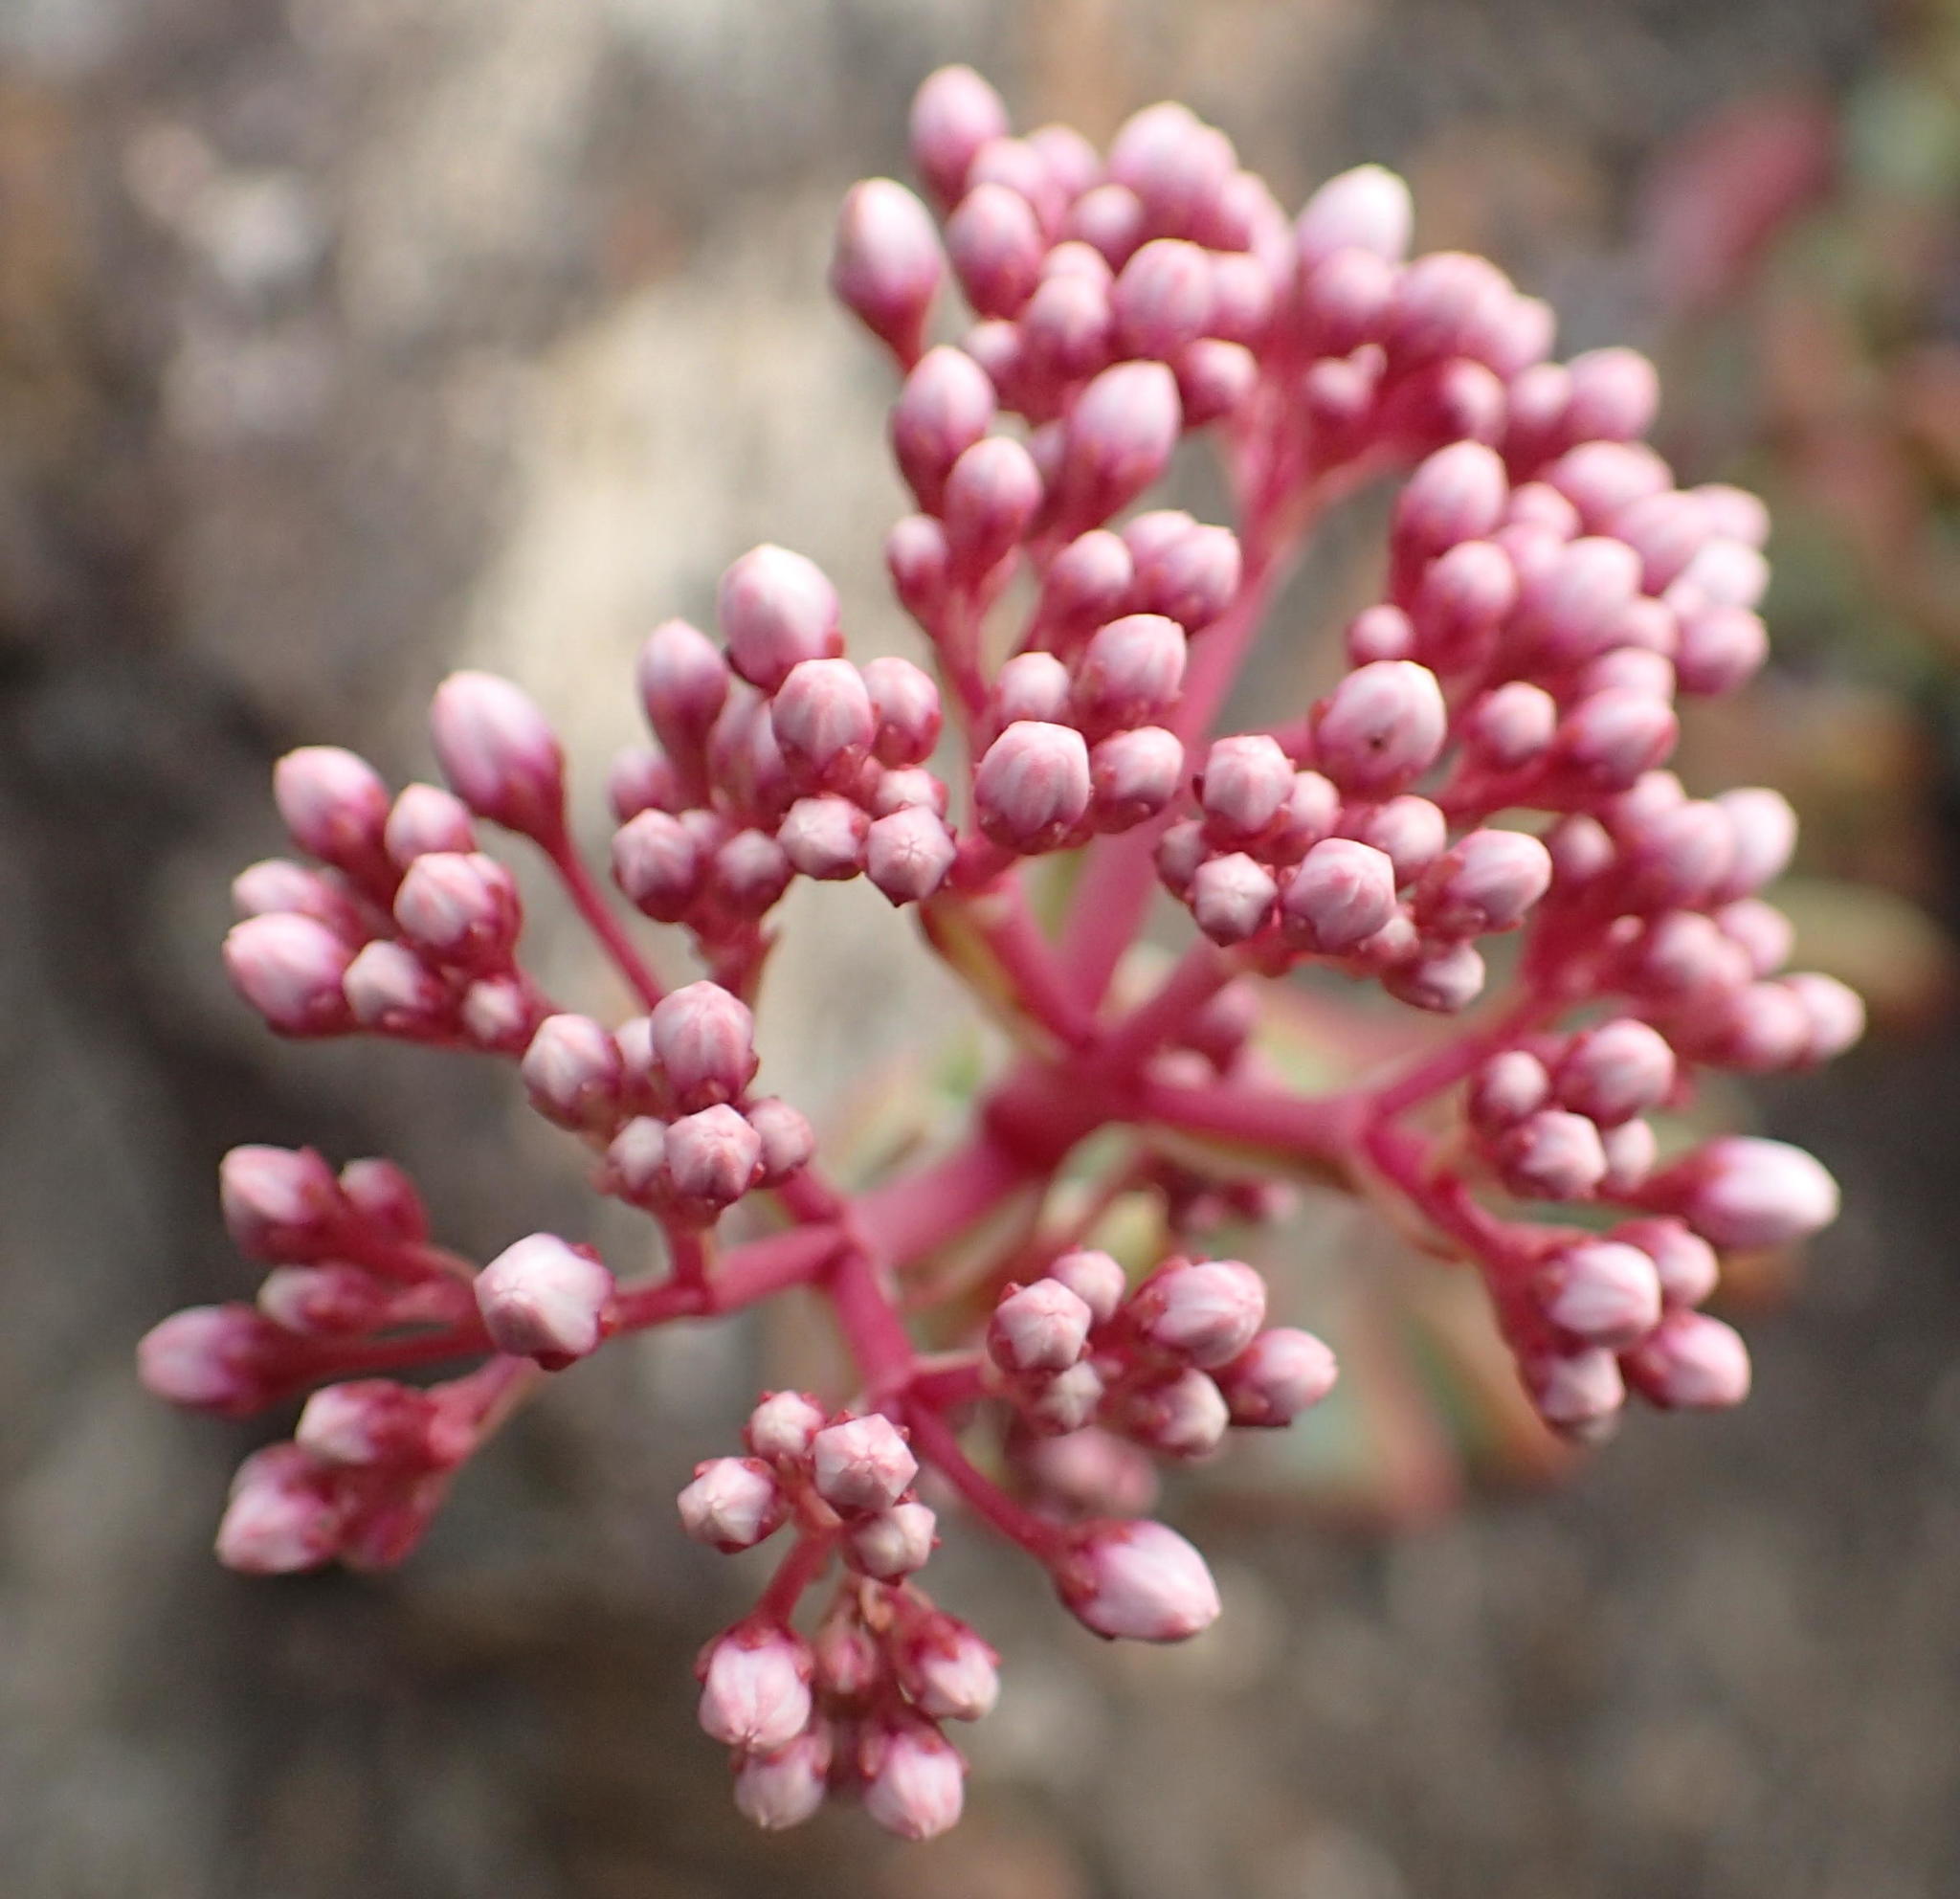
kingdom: Plantae
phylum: Tracheophyta
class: Magnoliopsida
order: Saxifragales
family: Crassulaceae
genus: Crassula
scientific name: Crassula rupestris
